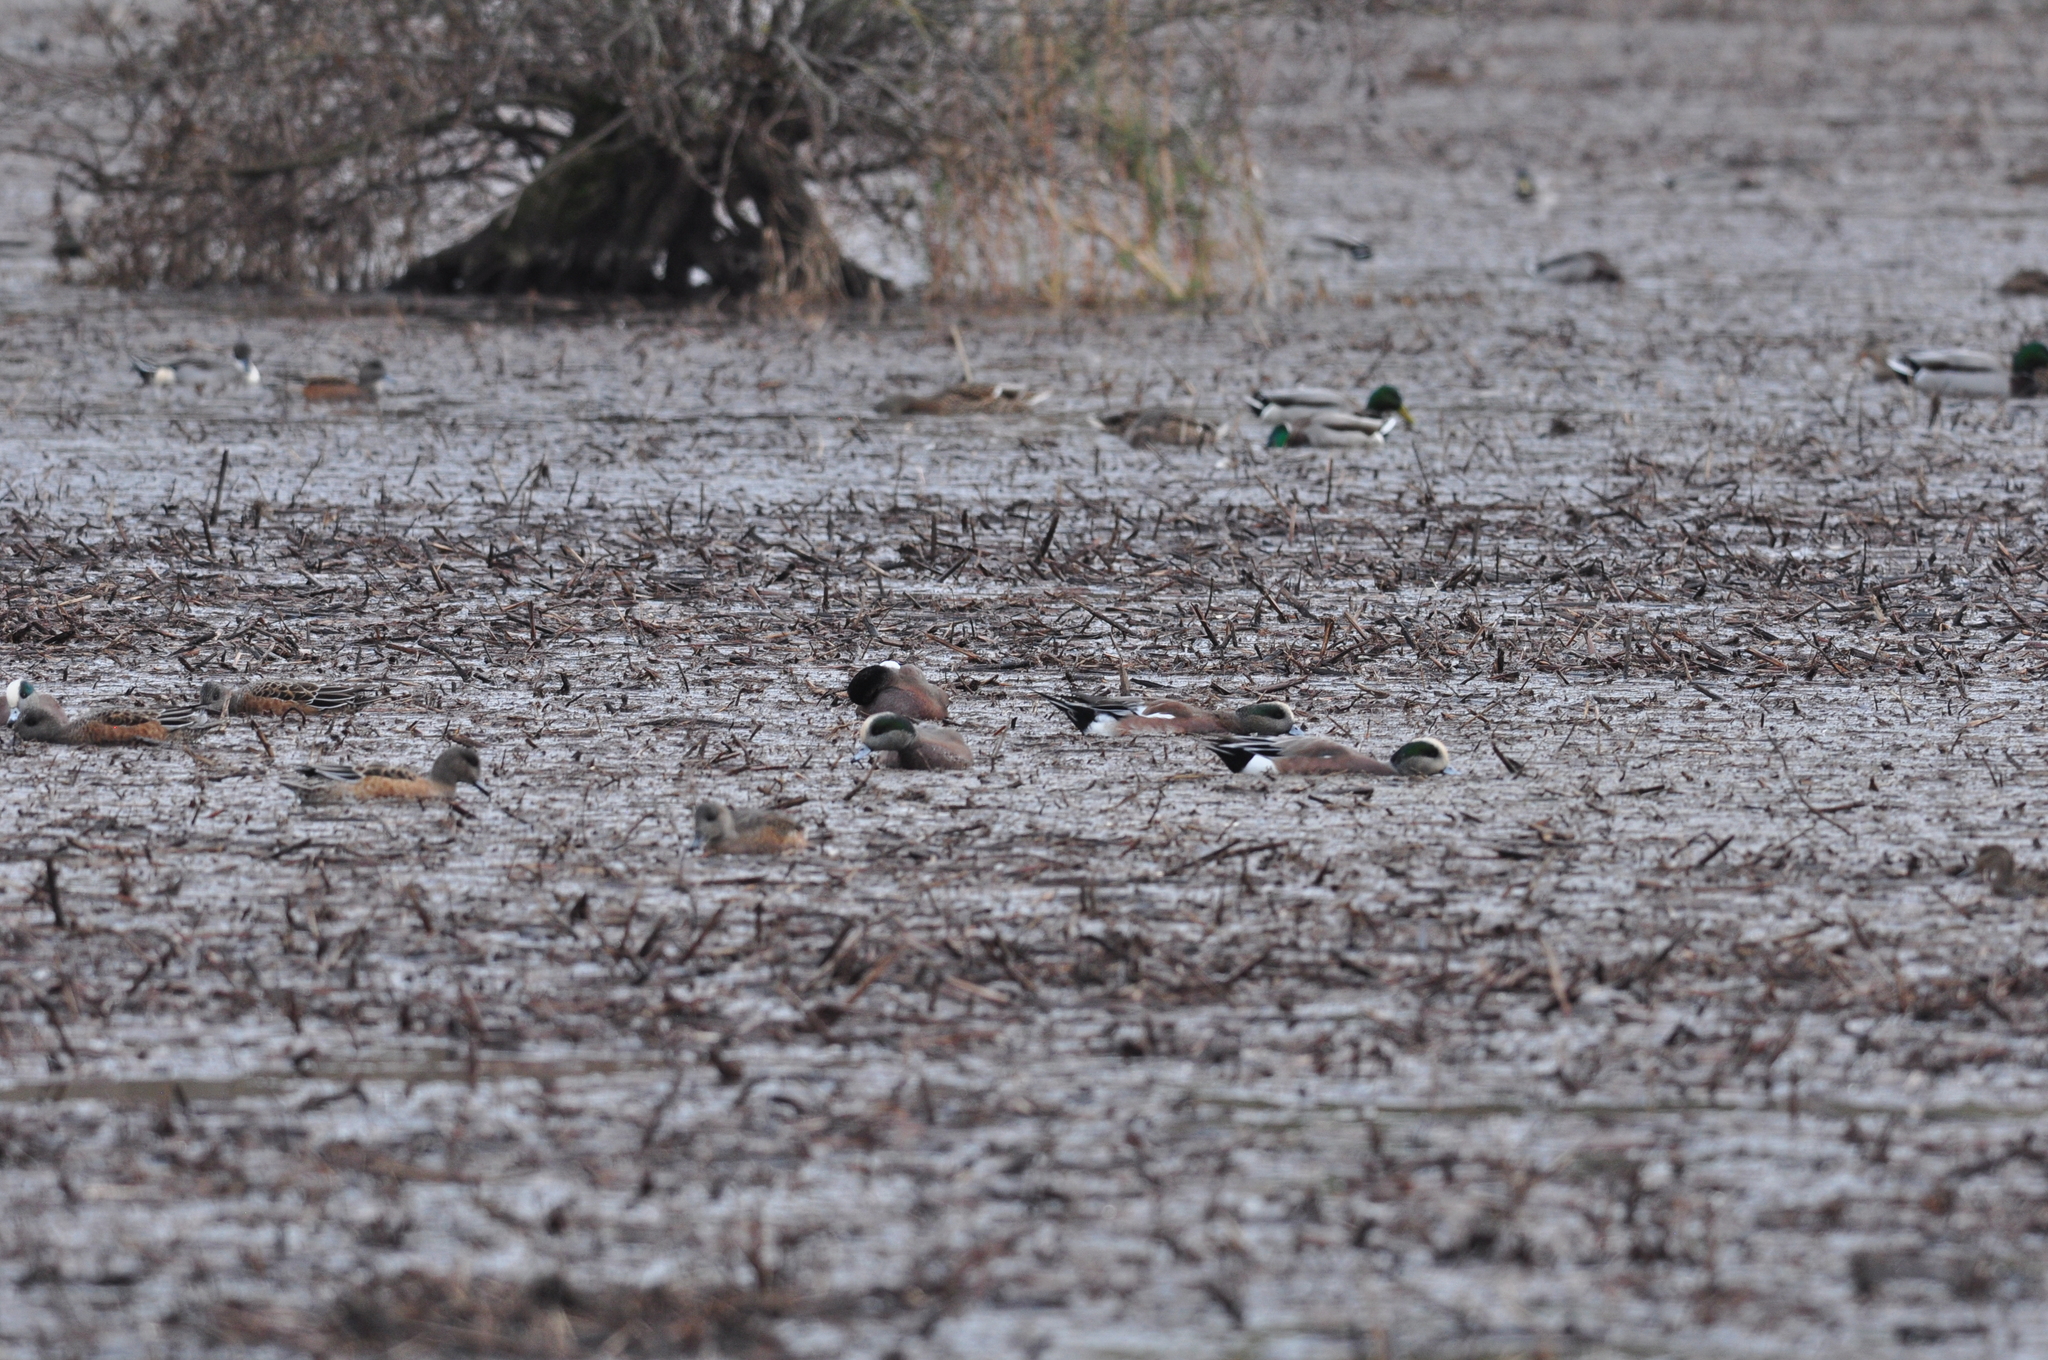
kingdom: Animalia
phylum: Chordata
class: Aves
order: Anseriformes
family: Anatidae
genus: Mareca
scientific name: Mareca americana
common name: American wigeon
